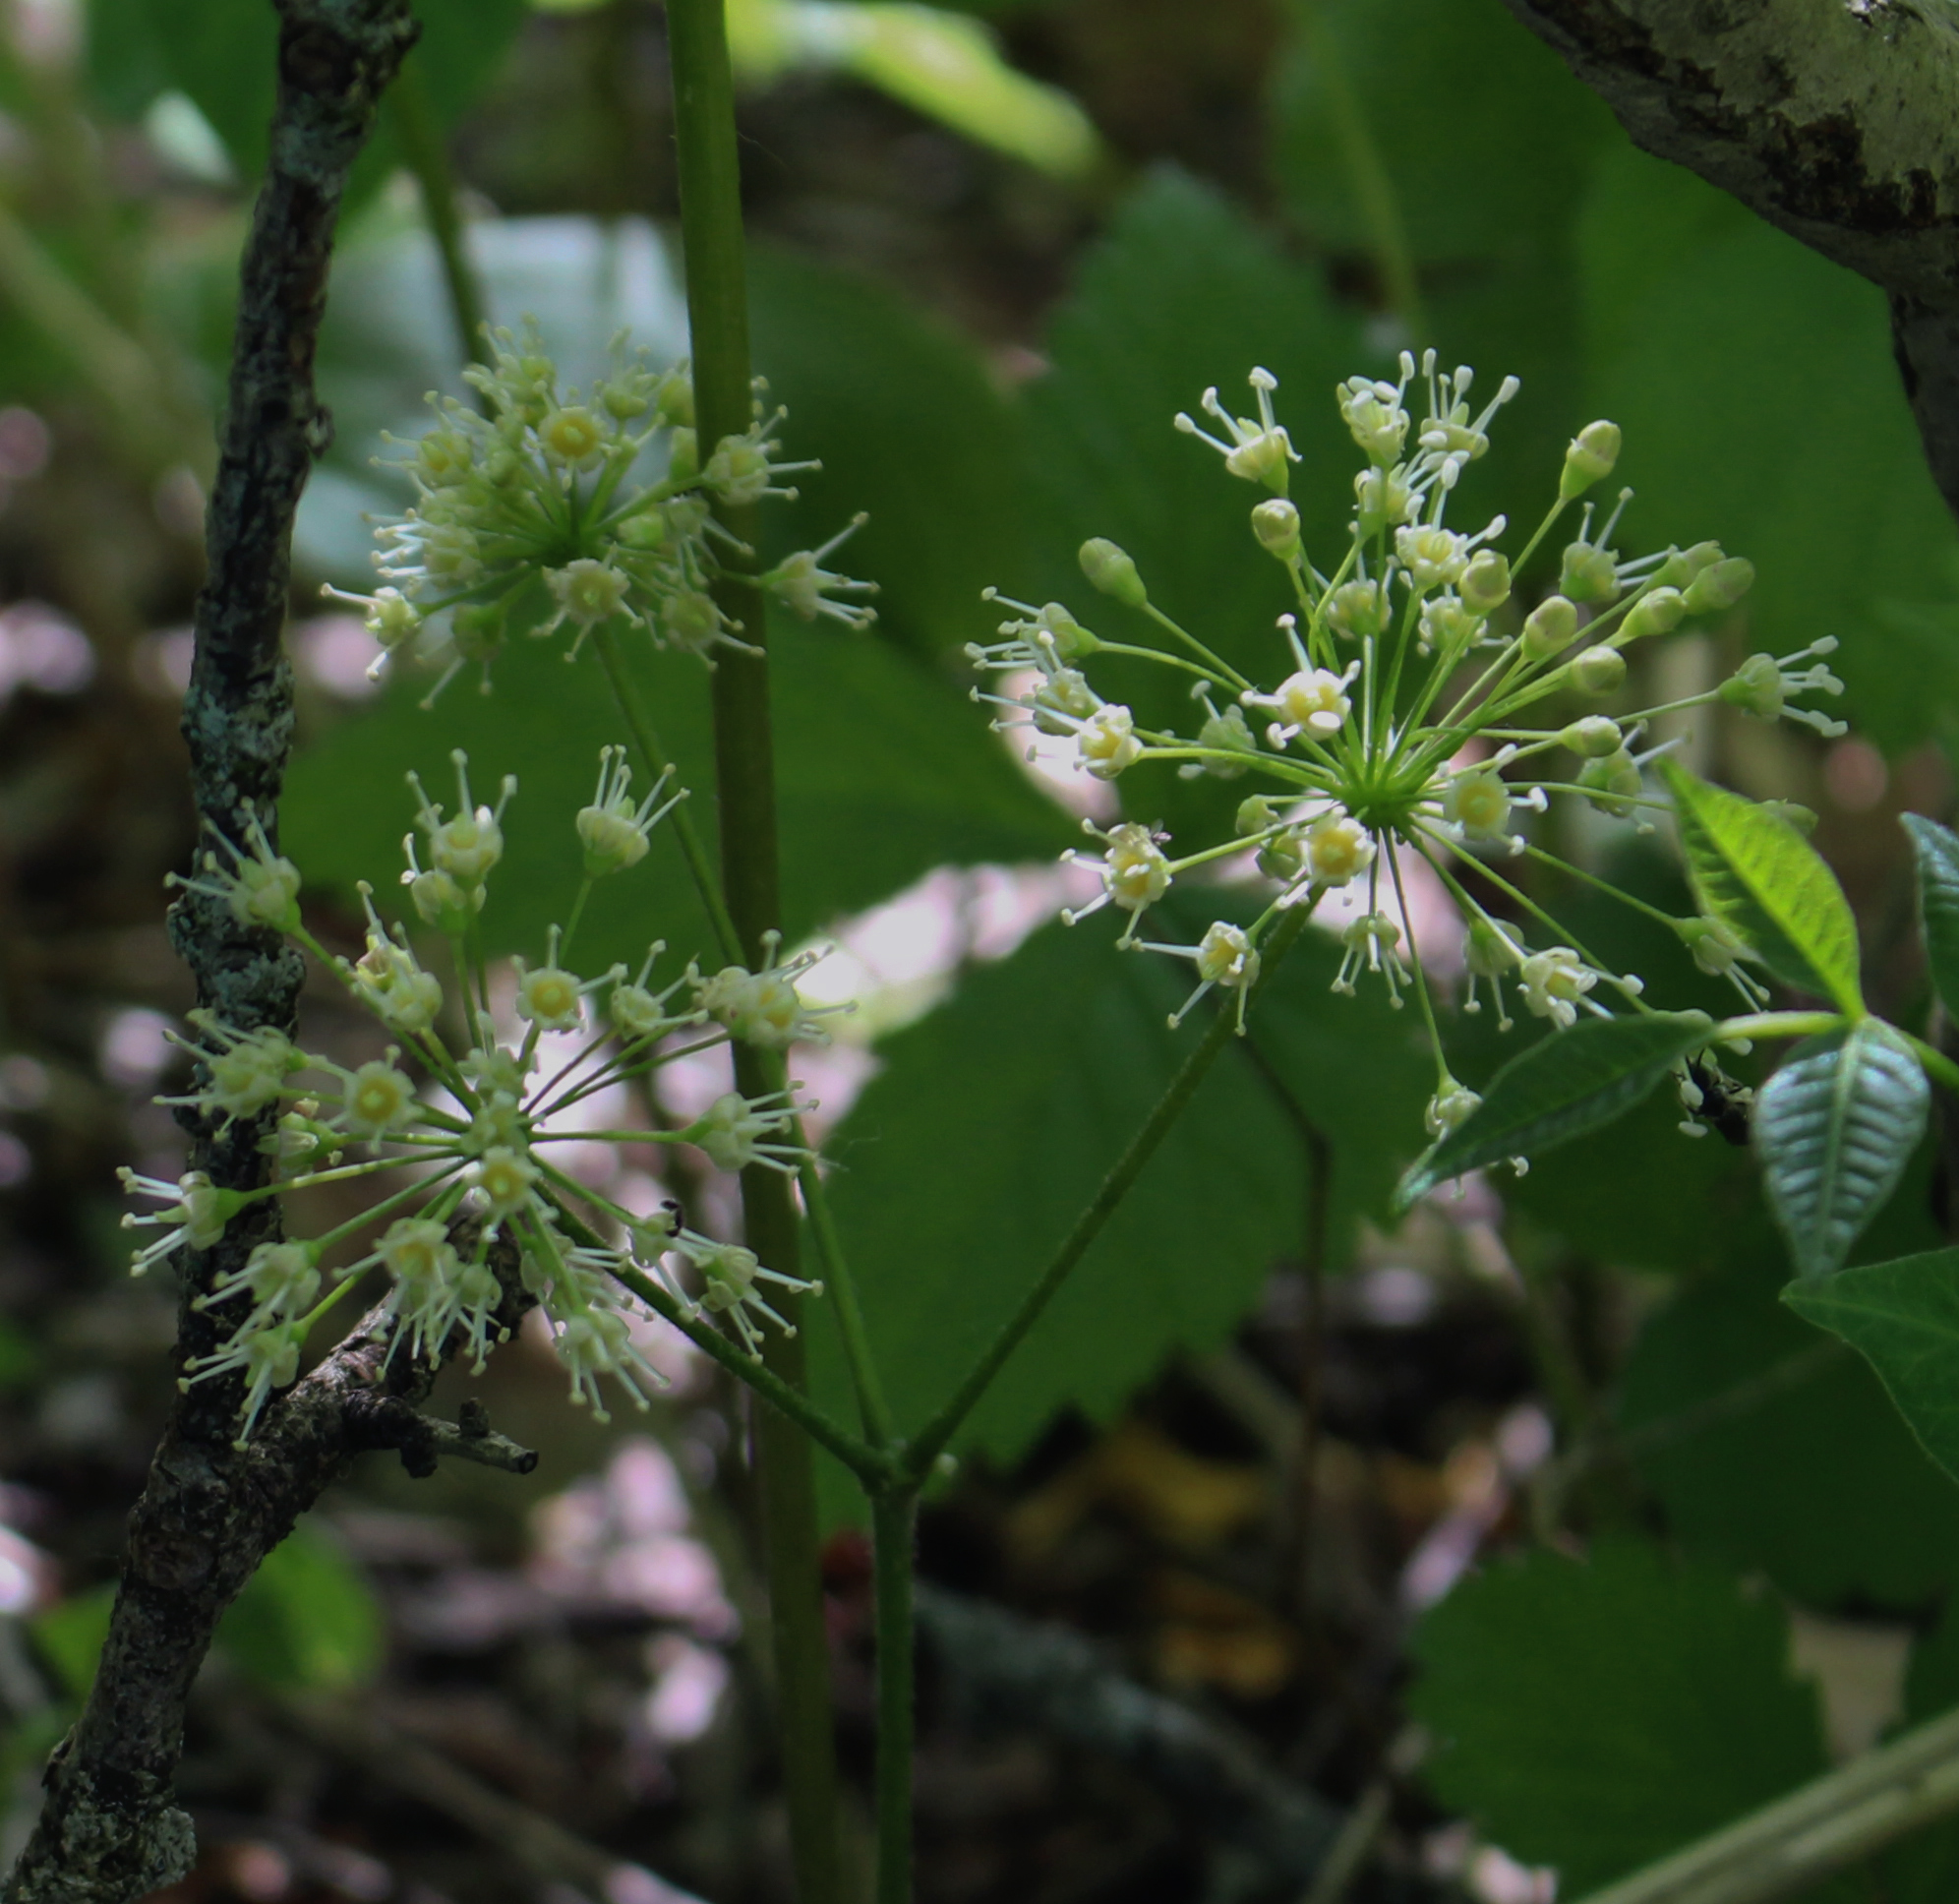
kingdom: Plantae
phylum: Tracheophyta
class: Magnoliopsida
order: Apiales
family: Araliaceae
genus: Aralia
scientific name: Aralia nudicaulis
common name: Wild sarsaparilla
